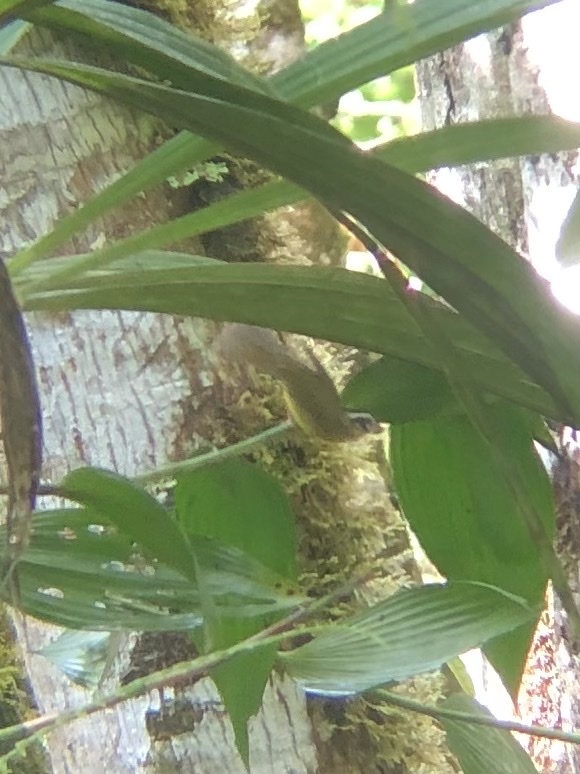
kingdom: Animalia
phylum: Chordata
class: Aves
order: Passeriformes
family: Parulidae
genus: Basileuterus
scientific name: Basileuterus tristriatus
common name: Three-striped warbler
